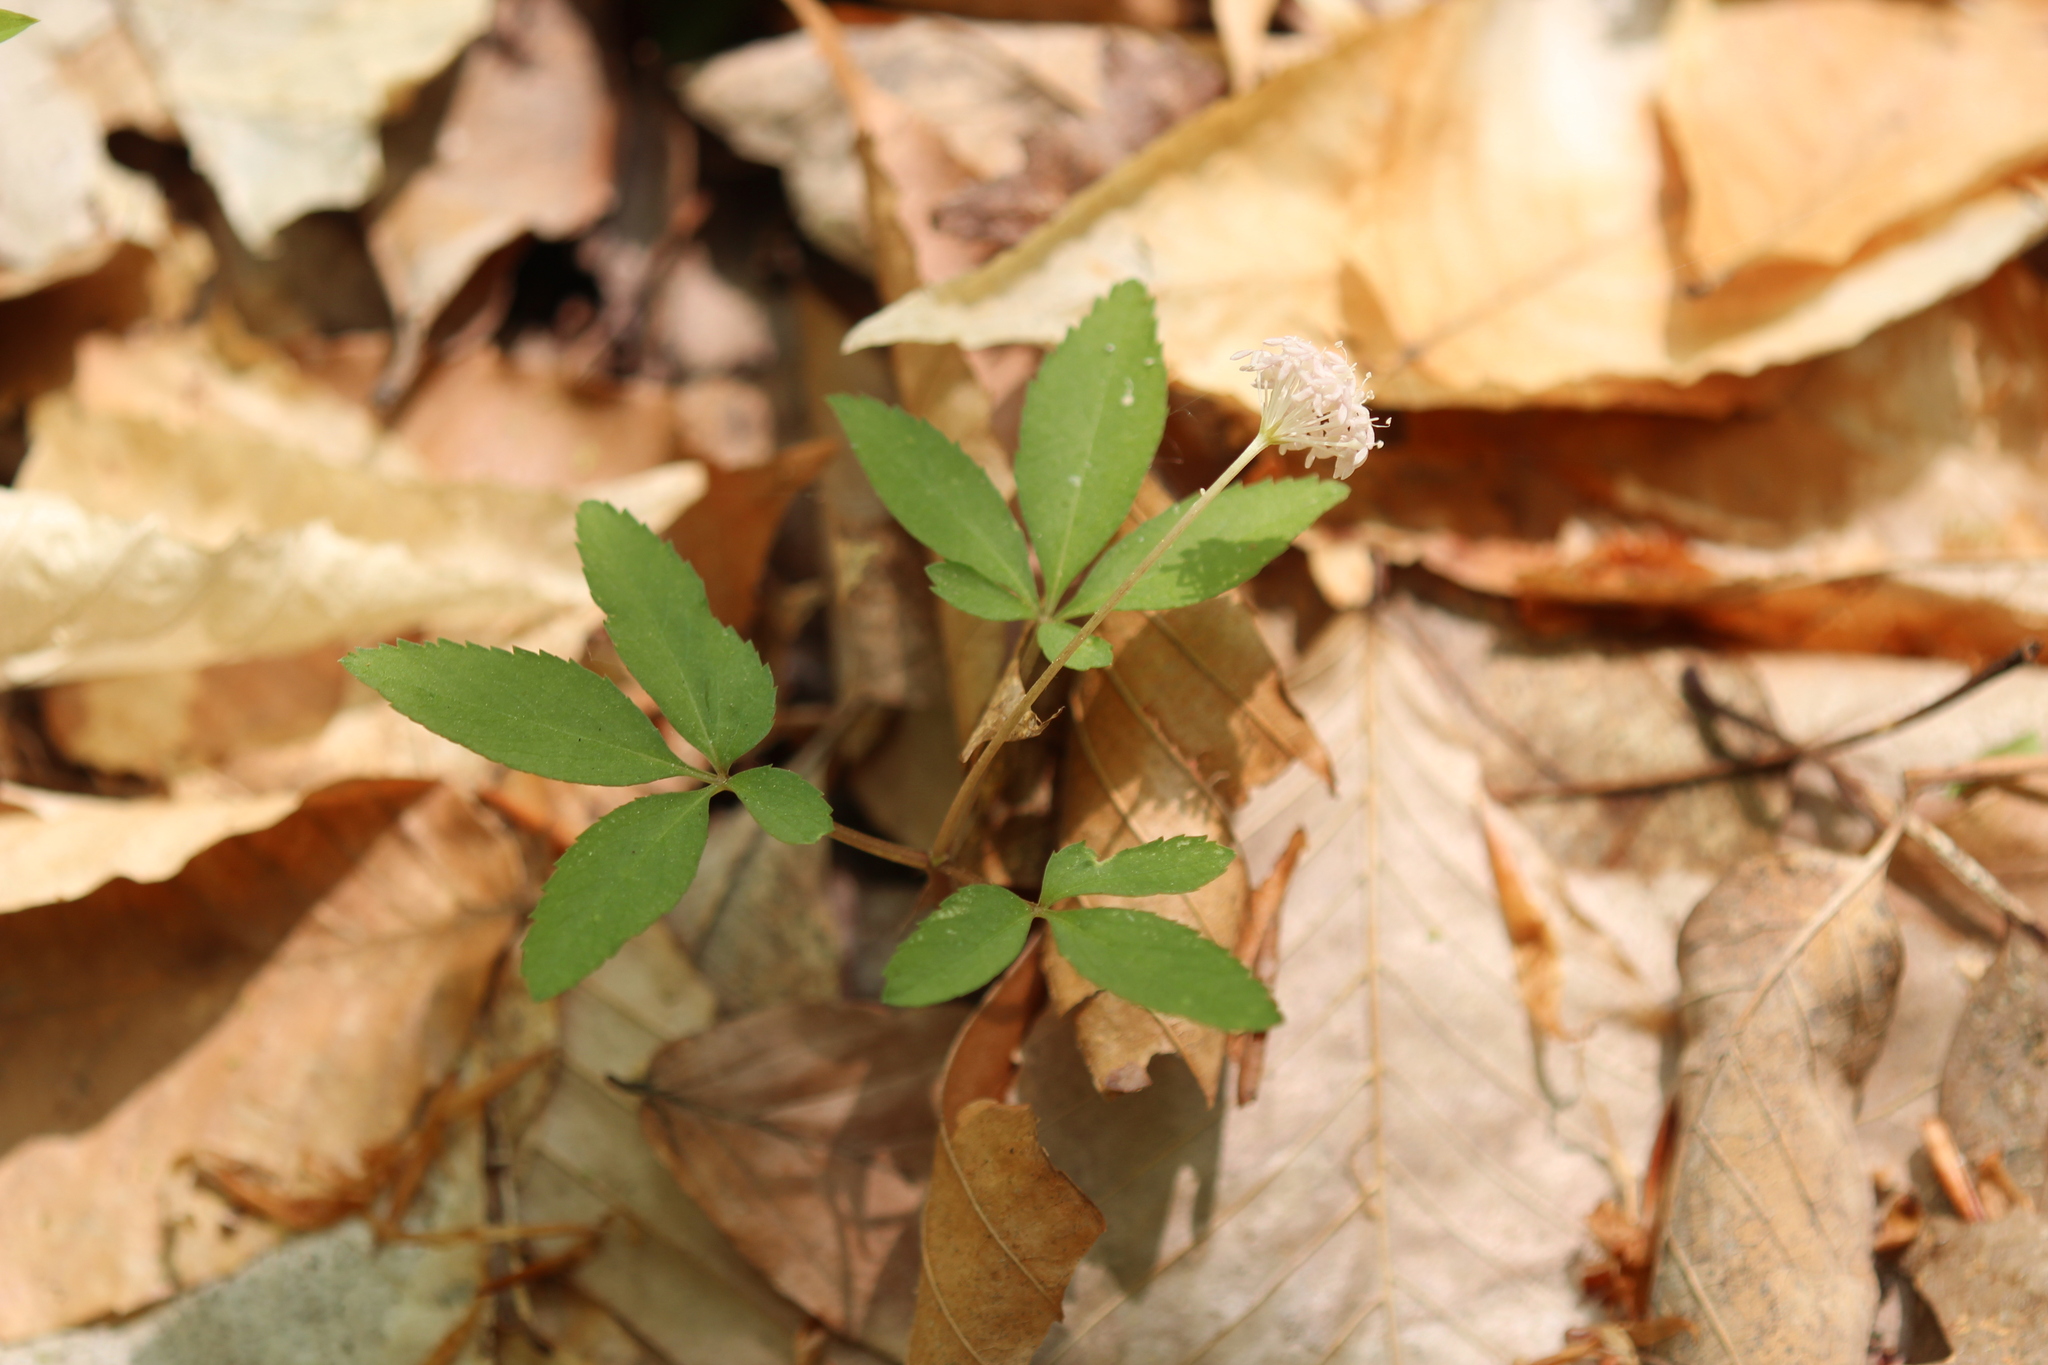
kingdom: Plantae
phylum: Tracheophyta
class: Magnoliopsida
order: Apiales
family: Araliaceae
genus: Panax
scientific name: Panax trifolius
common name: Dwarf ginseng
